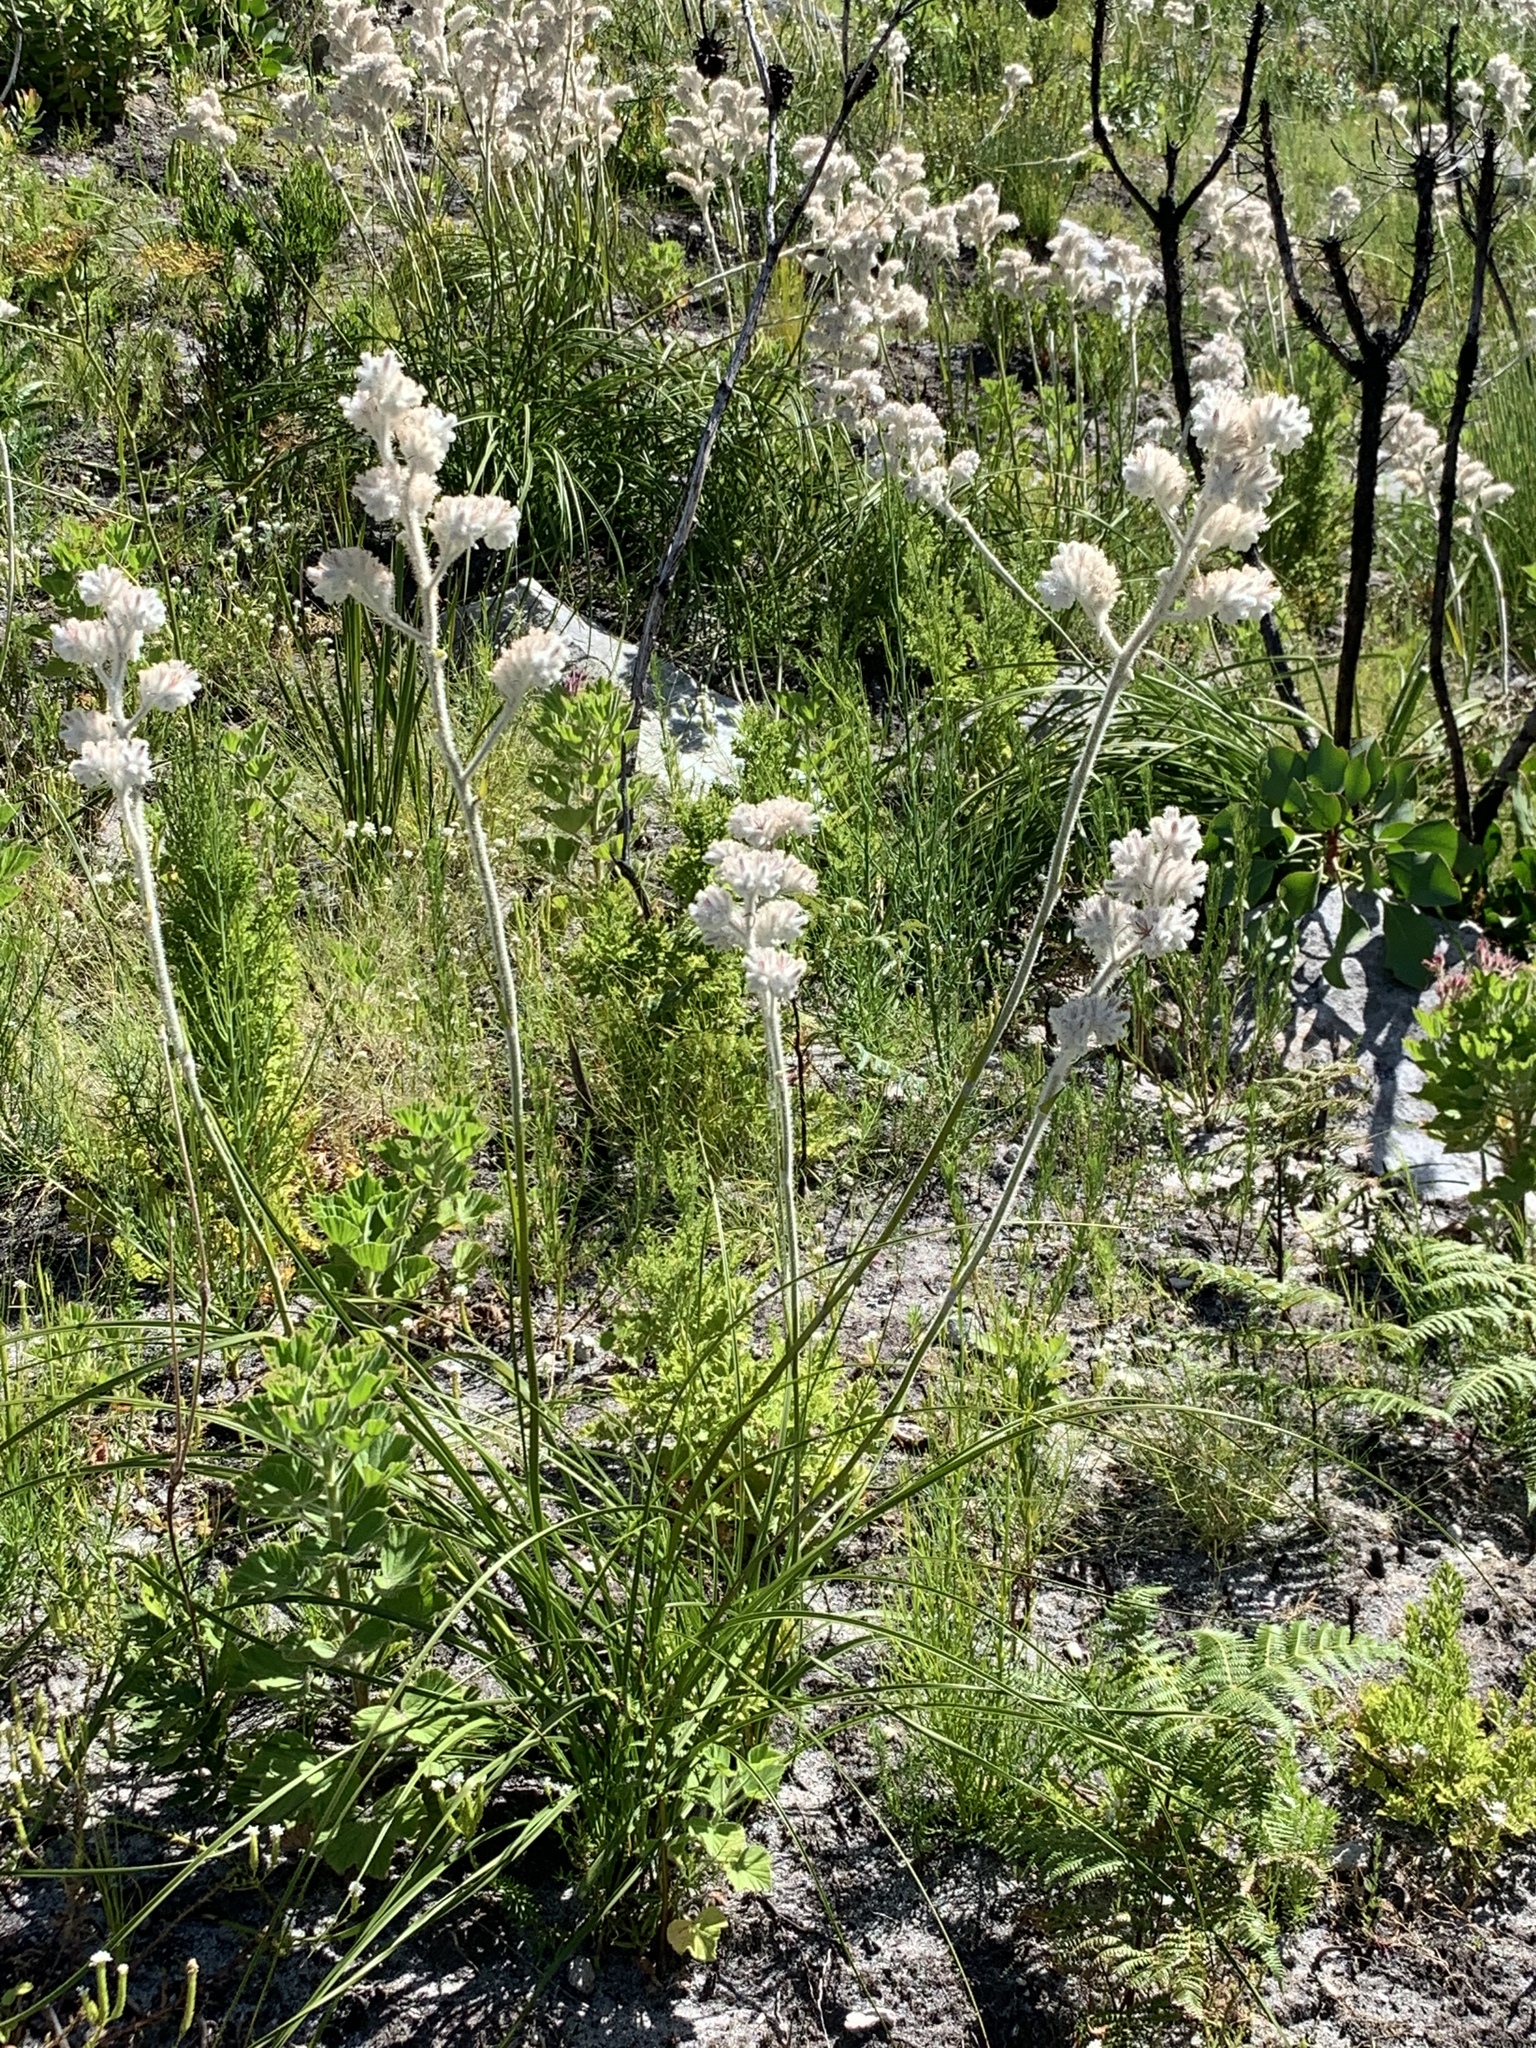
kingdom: Plantae
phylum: Tracheophyta
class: Liliopsida
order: Asparagales
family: Lanariaceae
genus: Lanaria
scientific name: Lanaria lanata
